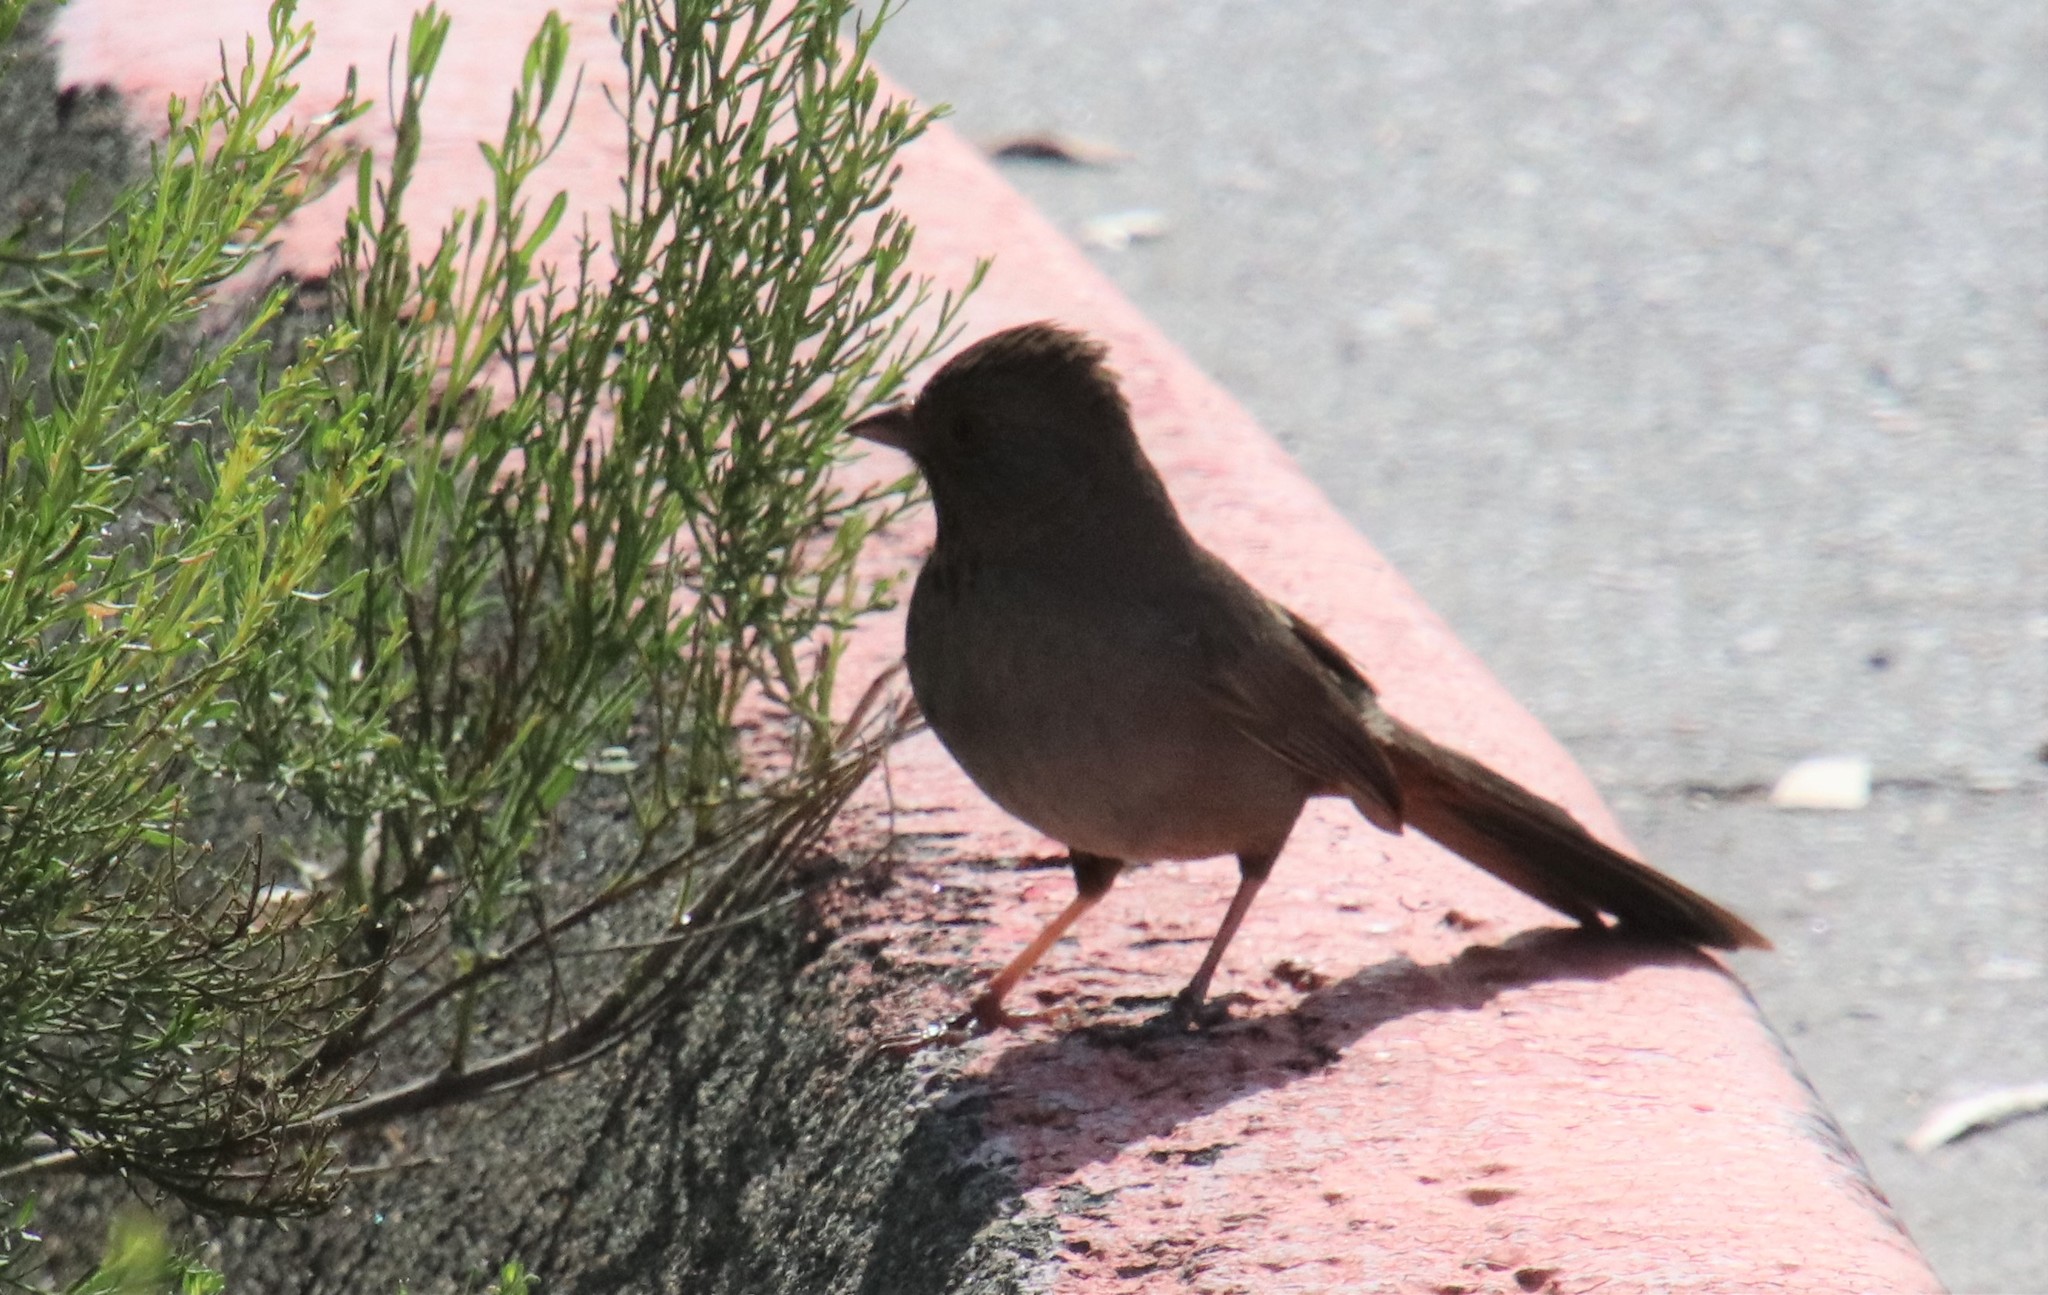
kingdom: Animalia
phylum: Chordata
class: Aves
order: Passeriformes
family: Passerellidae
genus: Melozone
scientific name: Melozone crissalis
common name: California towhee
